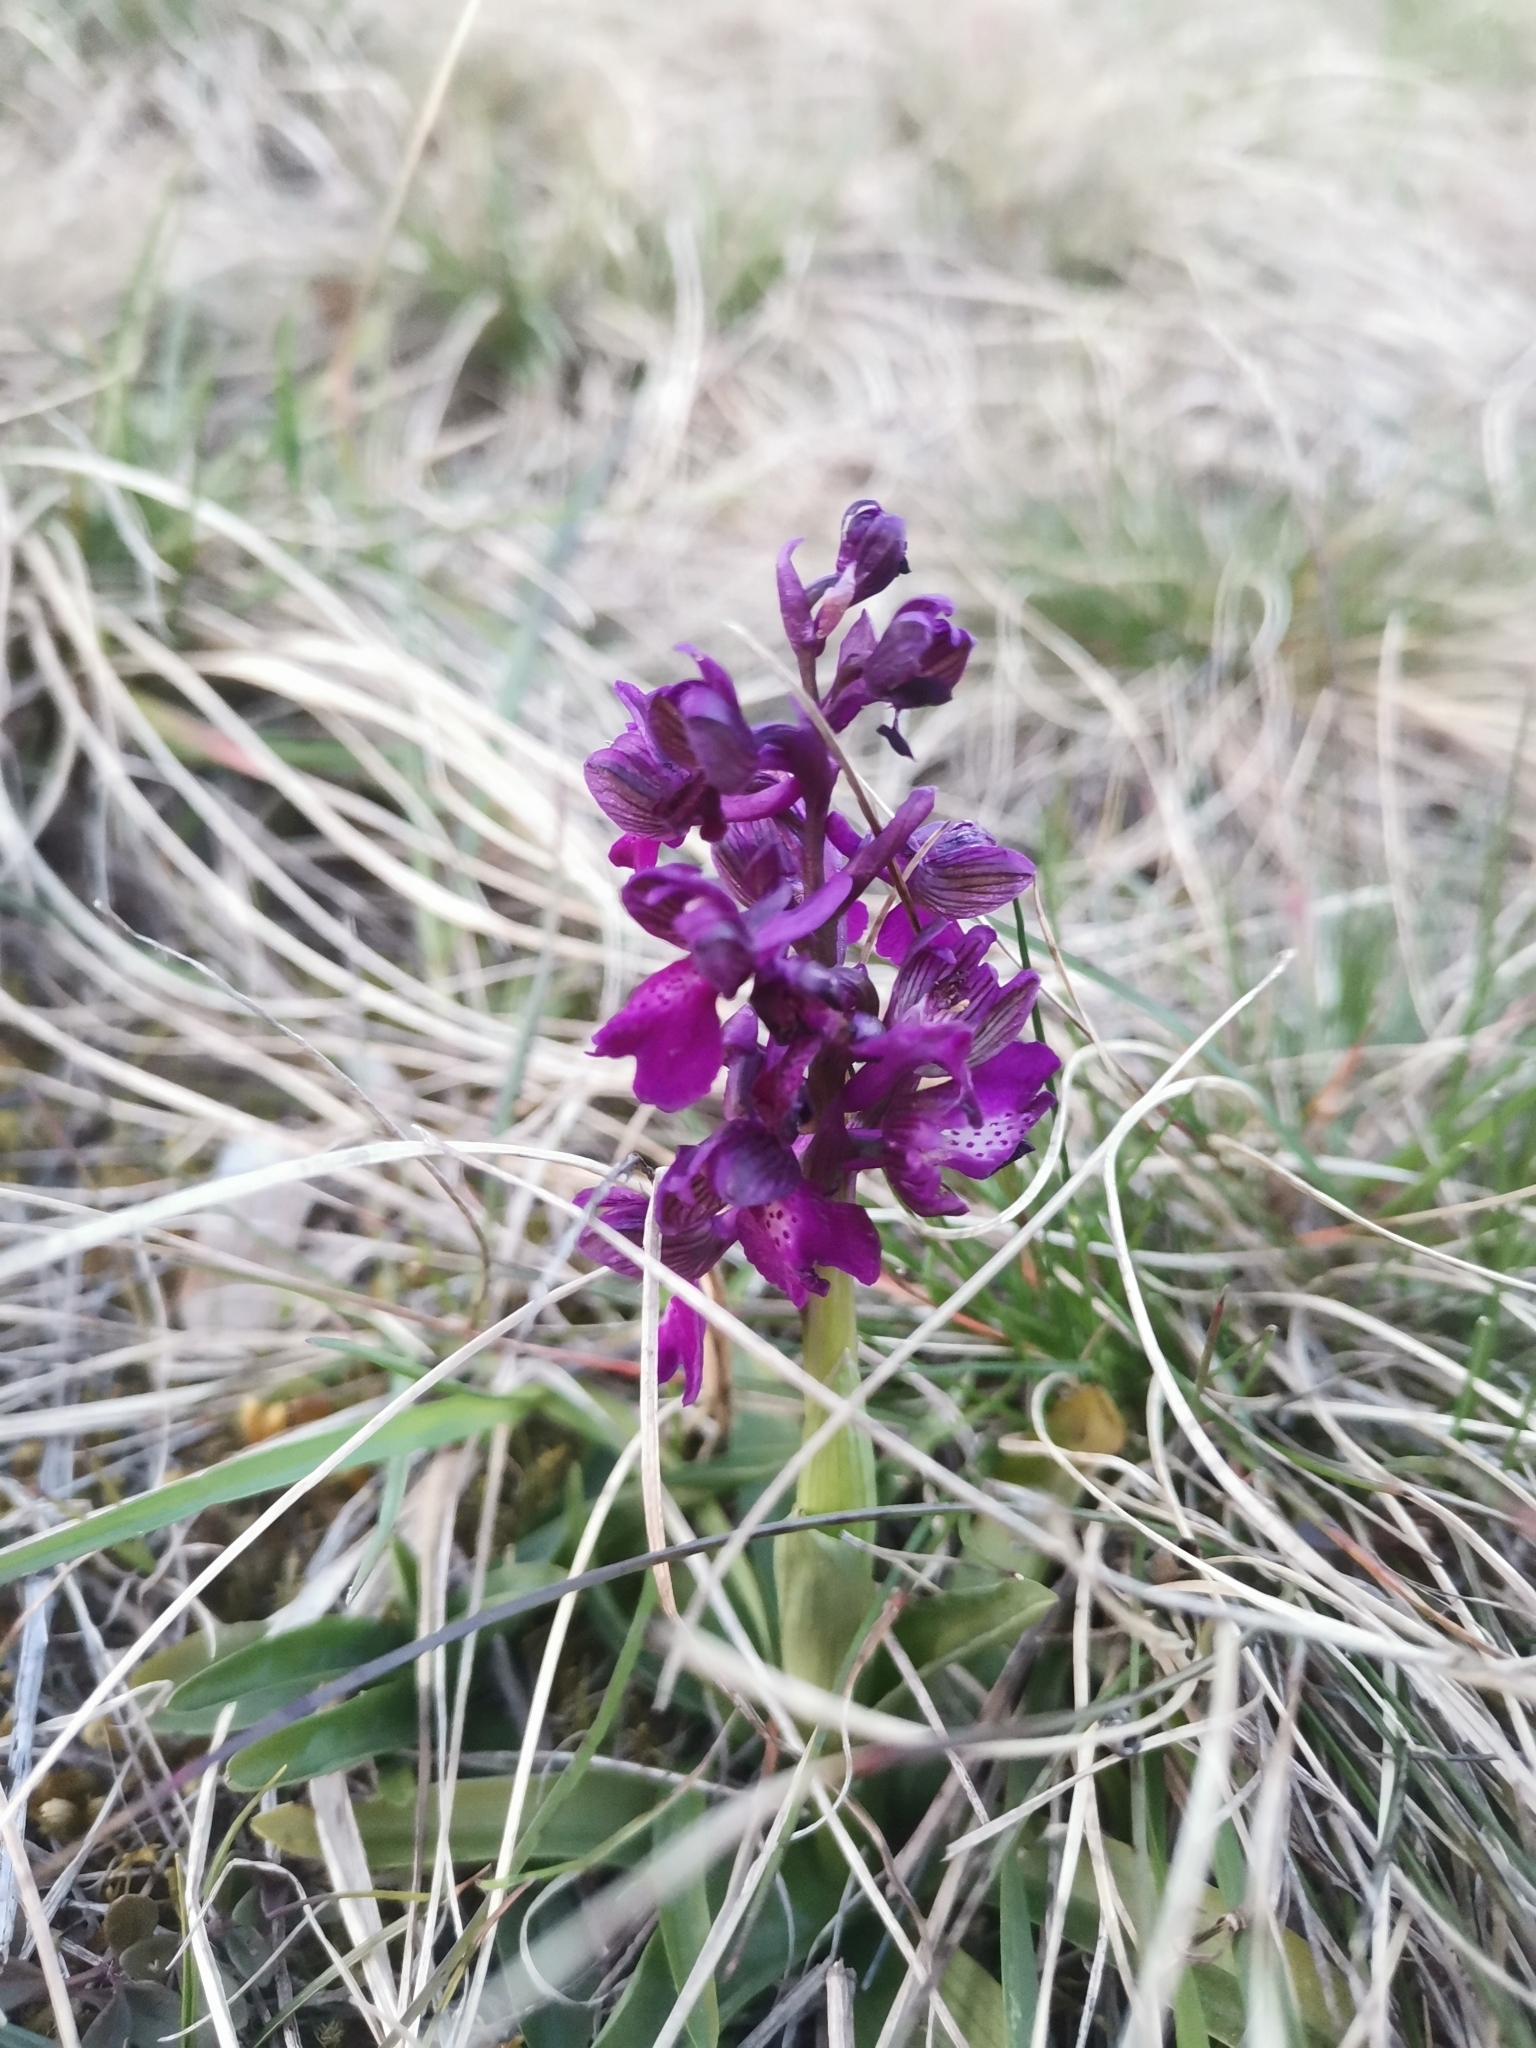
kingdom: Plantae
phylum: Tracheophyta
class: Liliopsida
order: Asparagales
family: Orchidaceae
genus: Anacamptis
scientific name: Anacamptis morio
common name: Green-winged orchid
